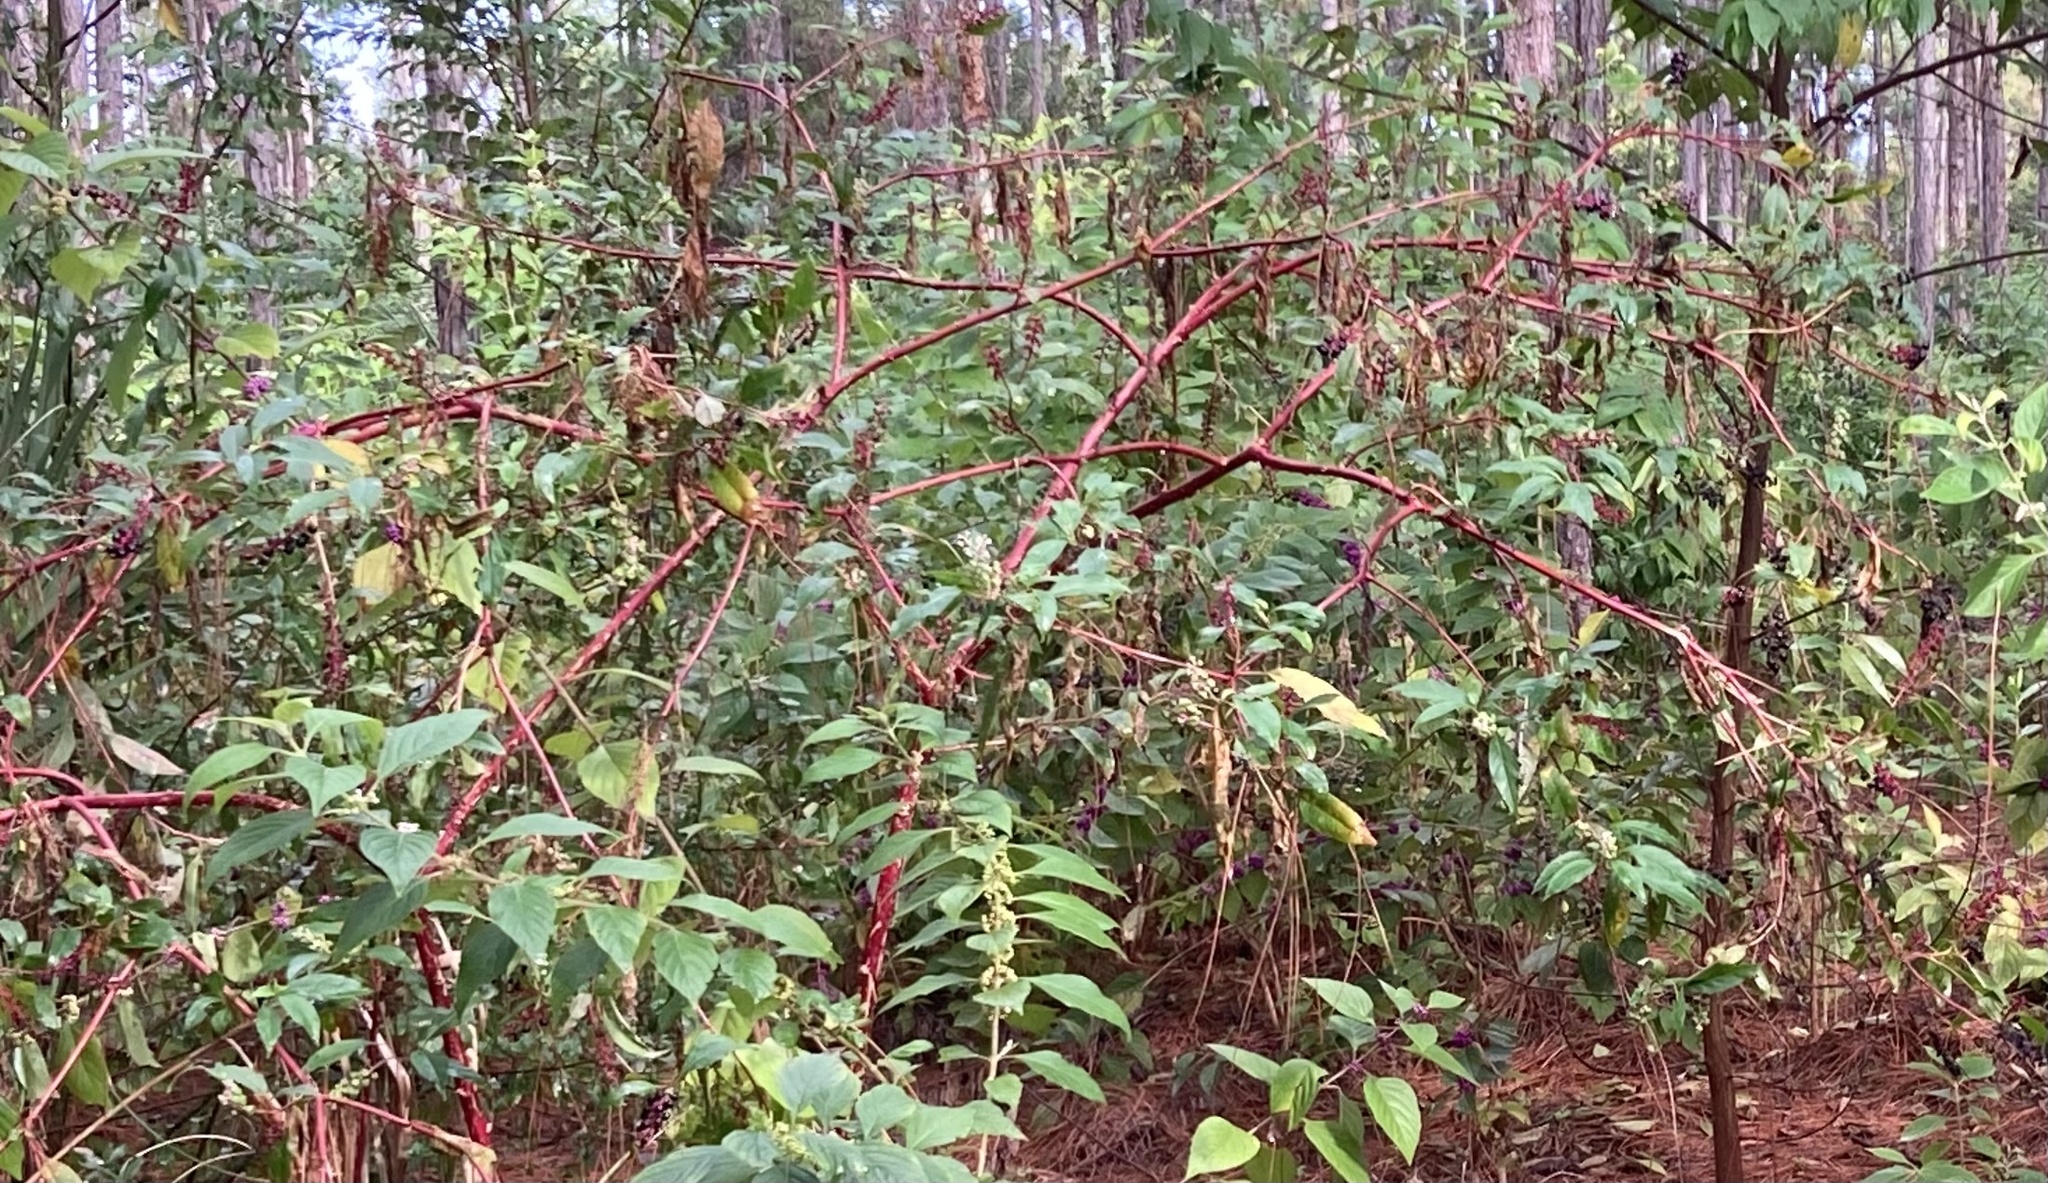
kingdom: Plantae
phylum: Tracheophyta
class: Magnoliopsida
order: Caryophyllales
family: Phytolaccaceae
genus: Phytolacca
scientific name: Phytolacca americana
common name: American pokeweed
